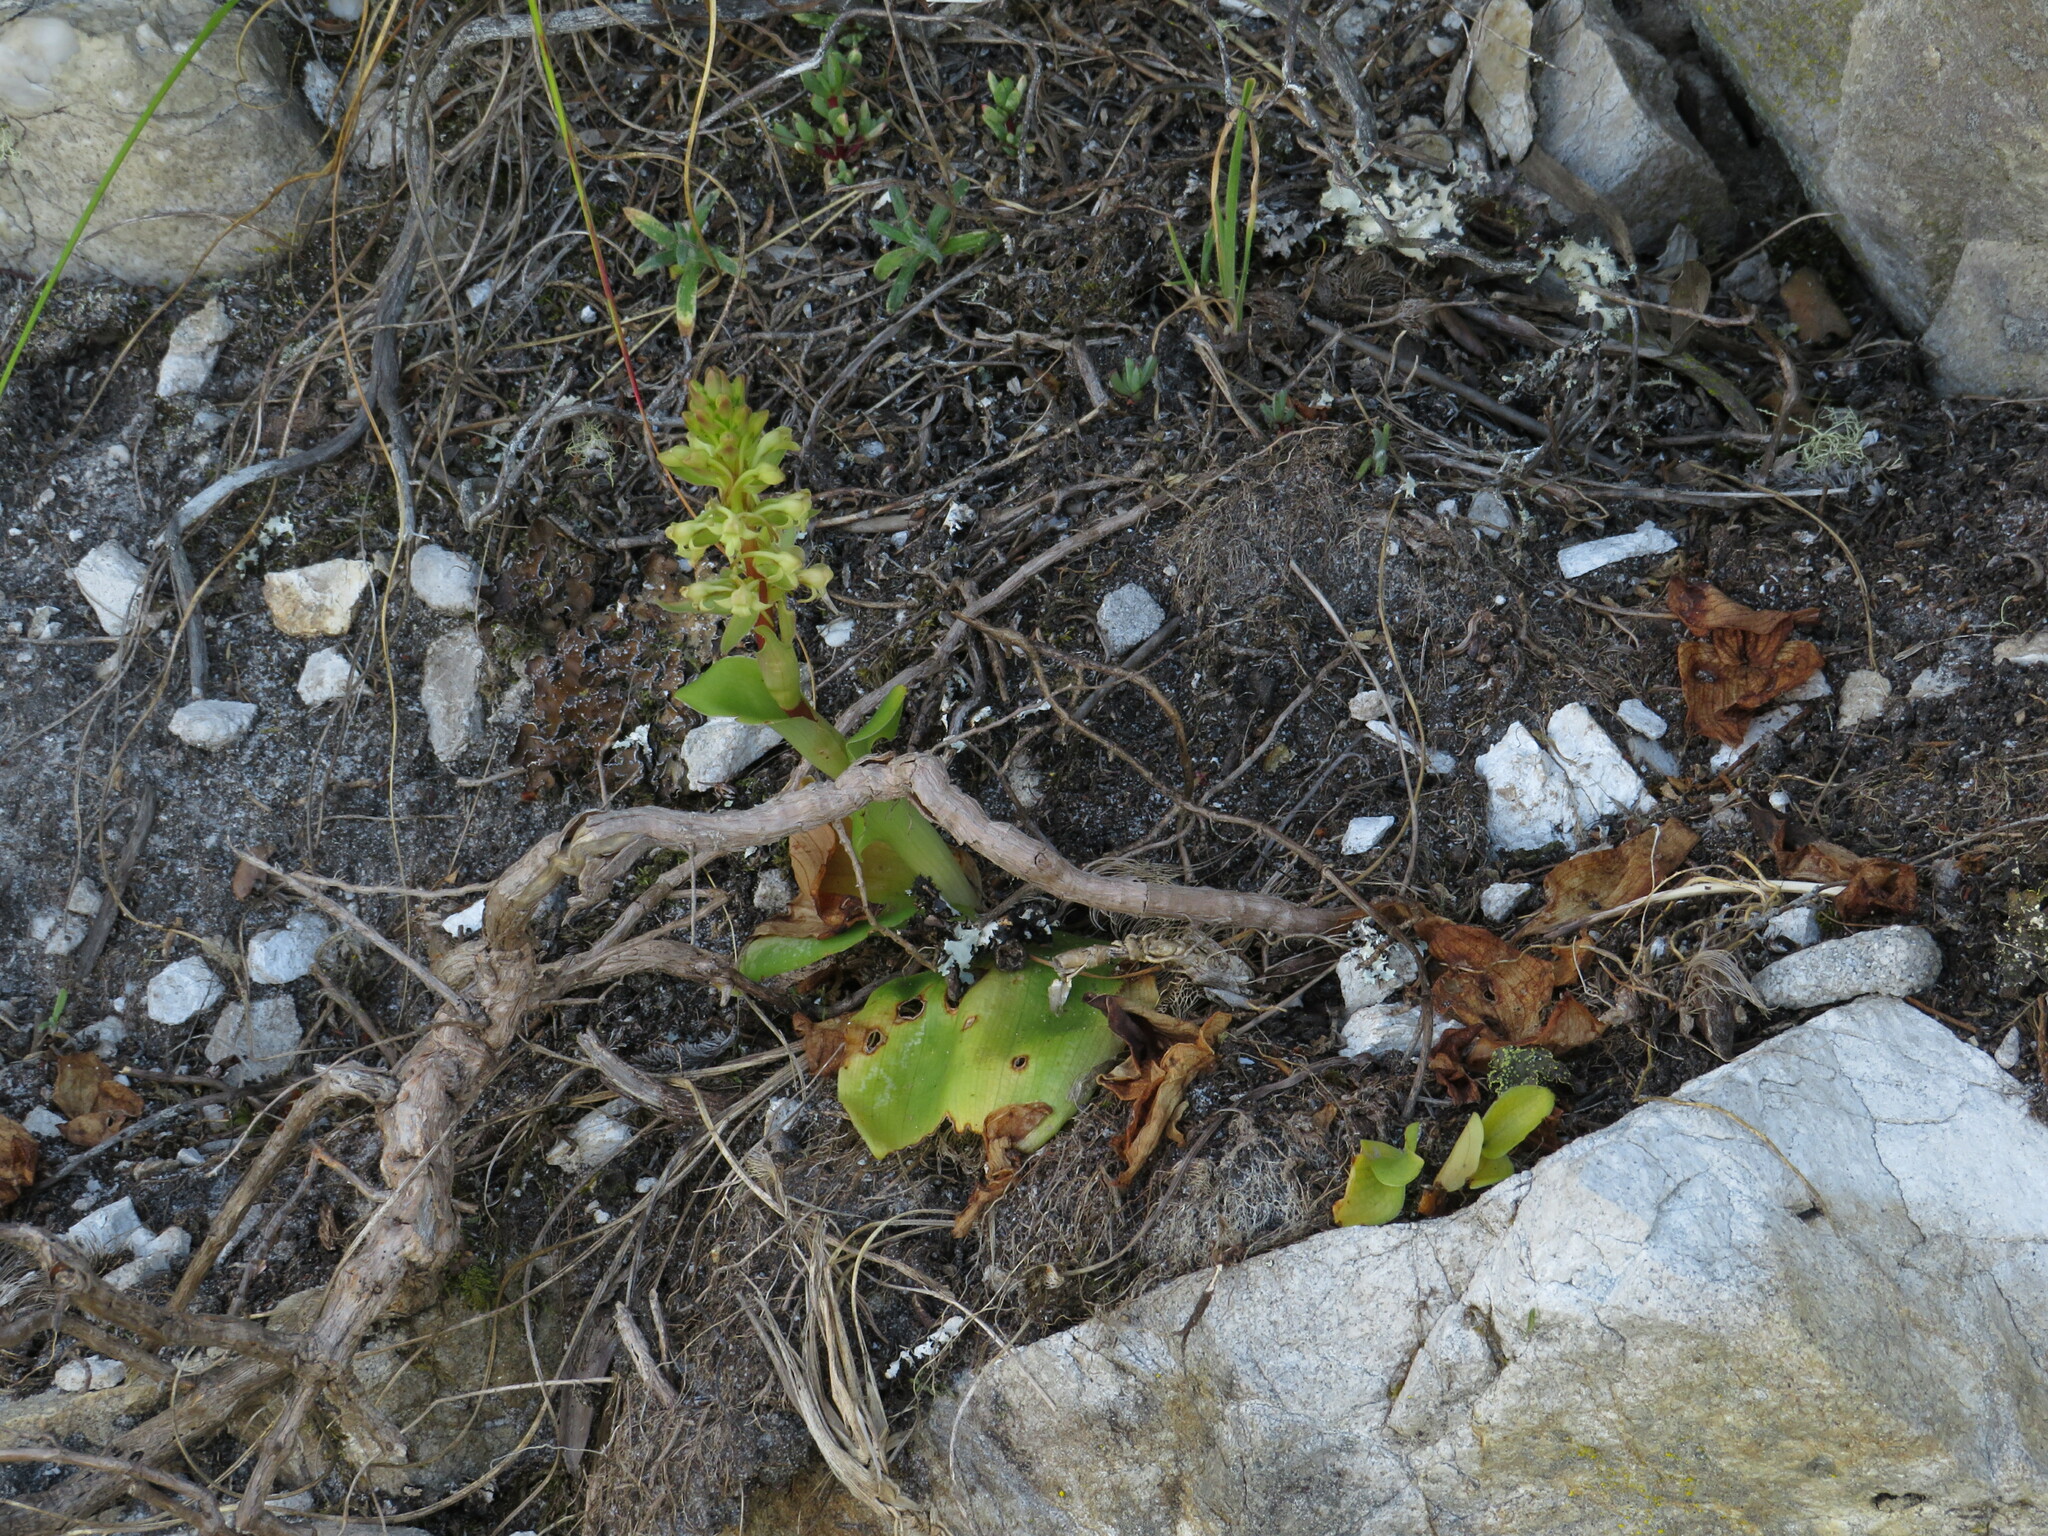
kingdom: Plantae
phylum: Tracheophyta
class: Liliopsida
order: Asparagales
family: Orchidaceae
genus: Satyrium
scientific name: Satyrium humile
